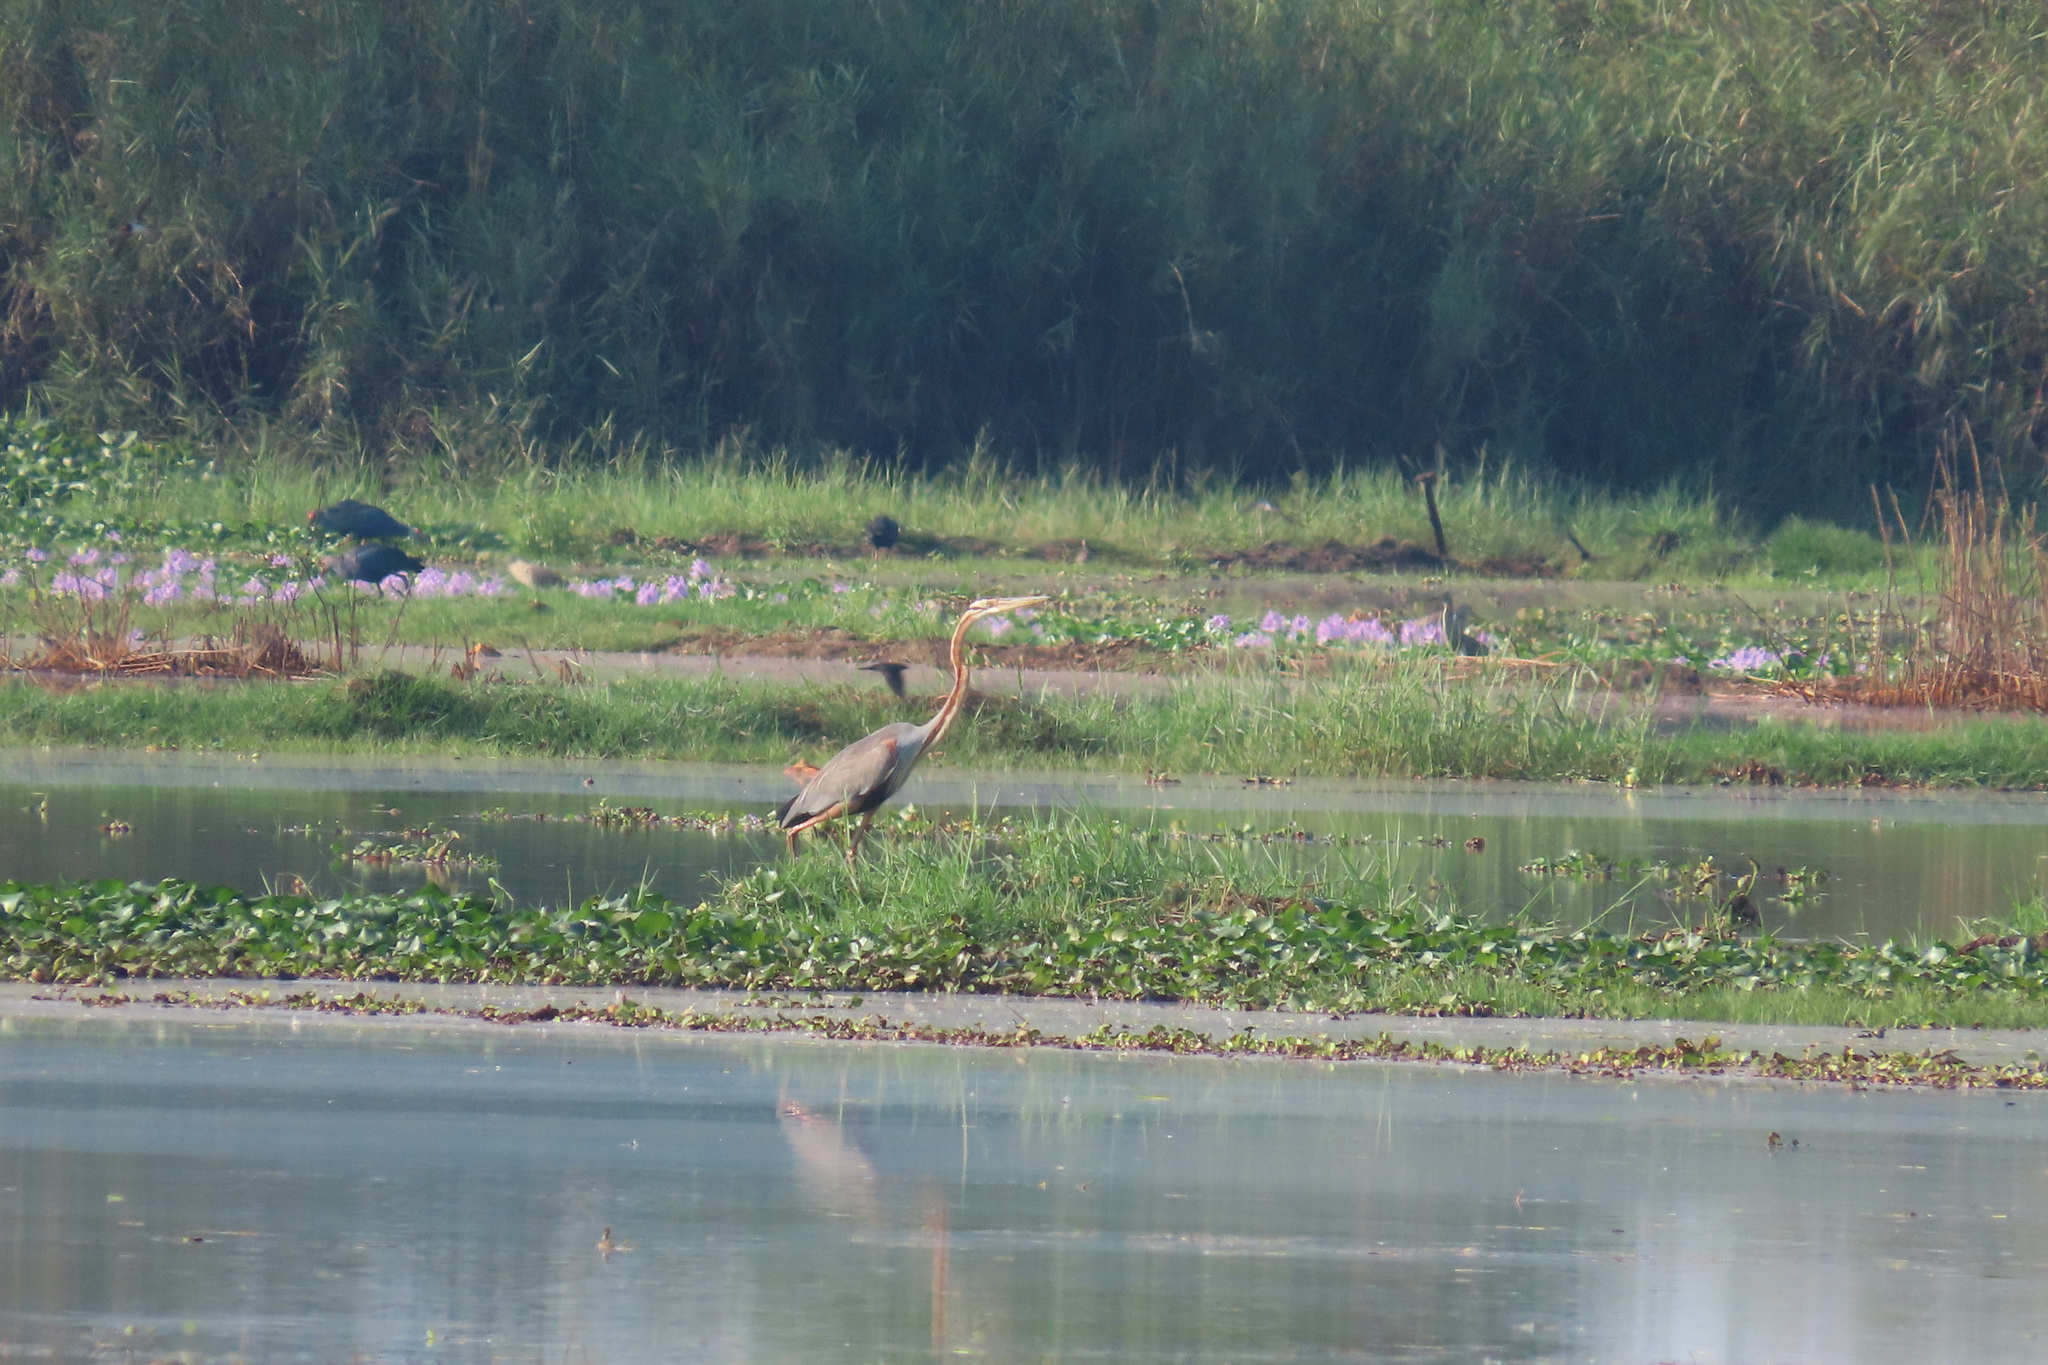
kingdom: Animalia
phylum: Chordata
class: Aves
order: Pelecaniformes
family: Ardeidae
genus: Ardea
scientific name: Ardea purpurea
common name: Purple heron
